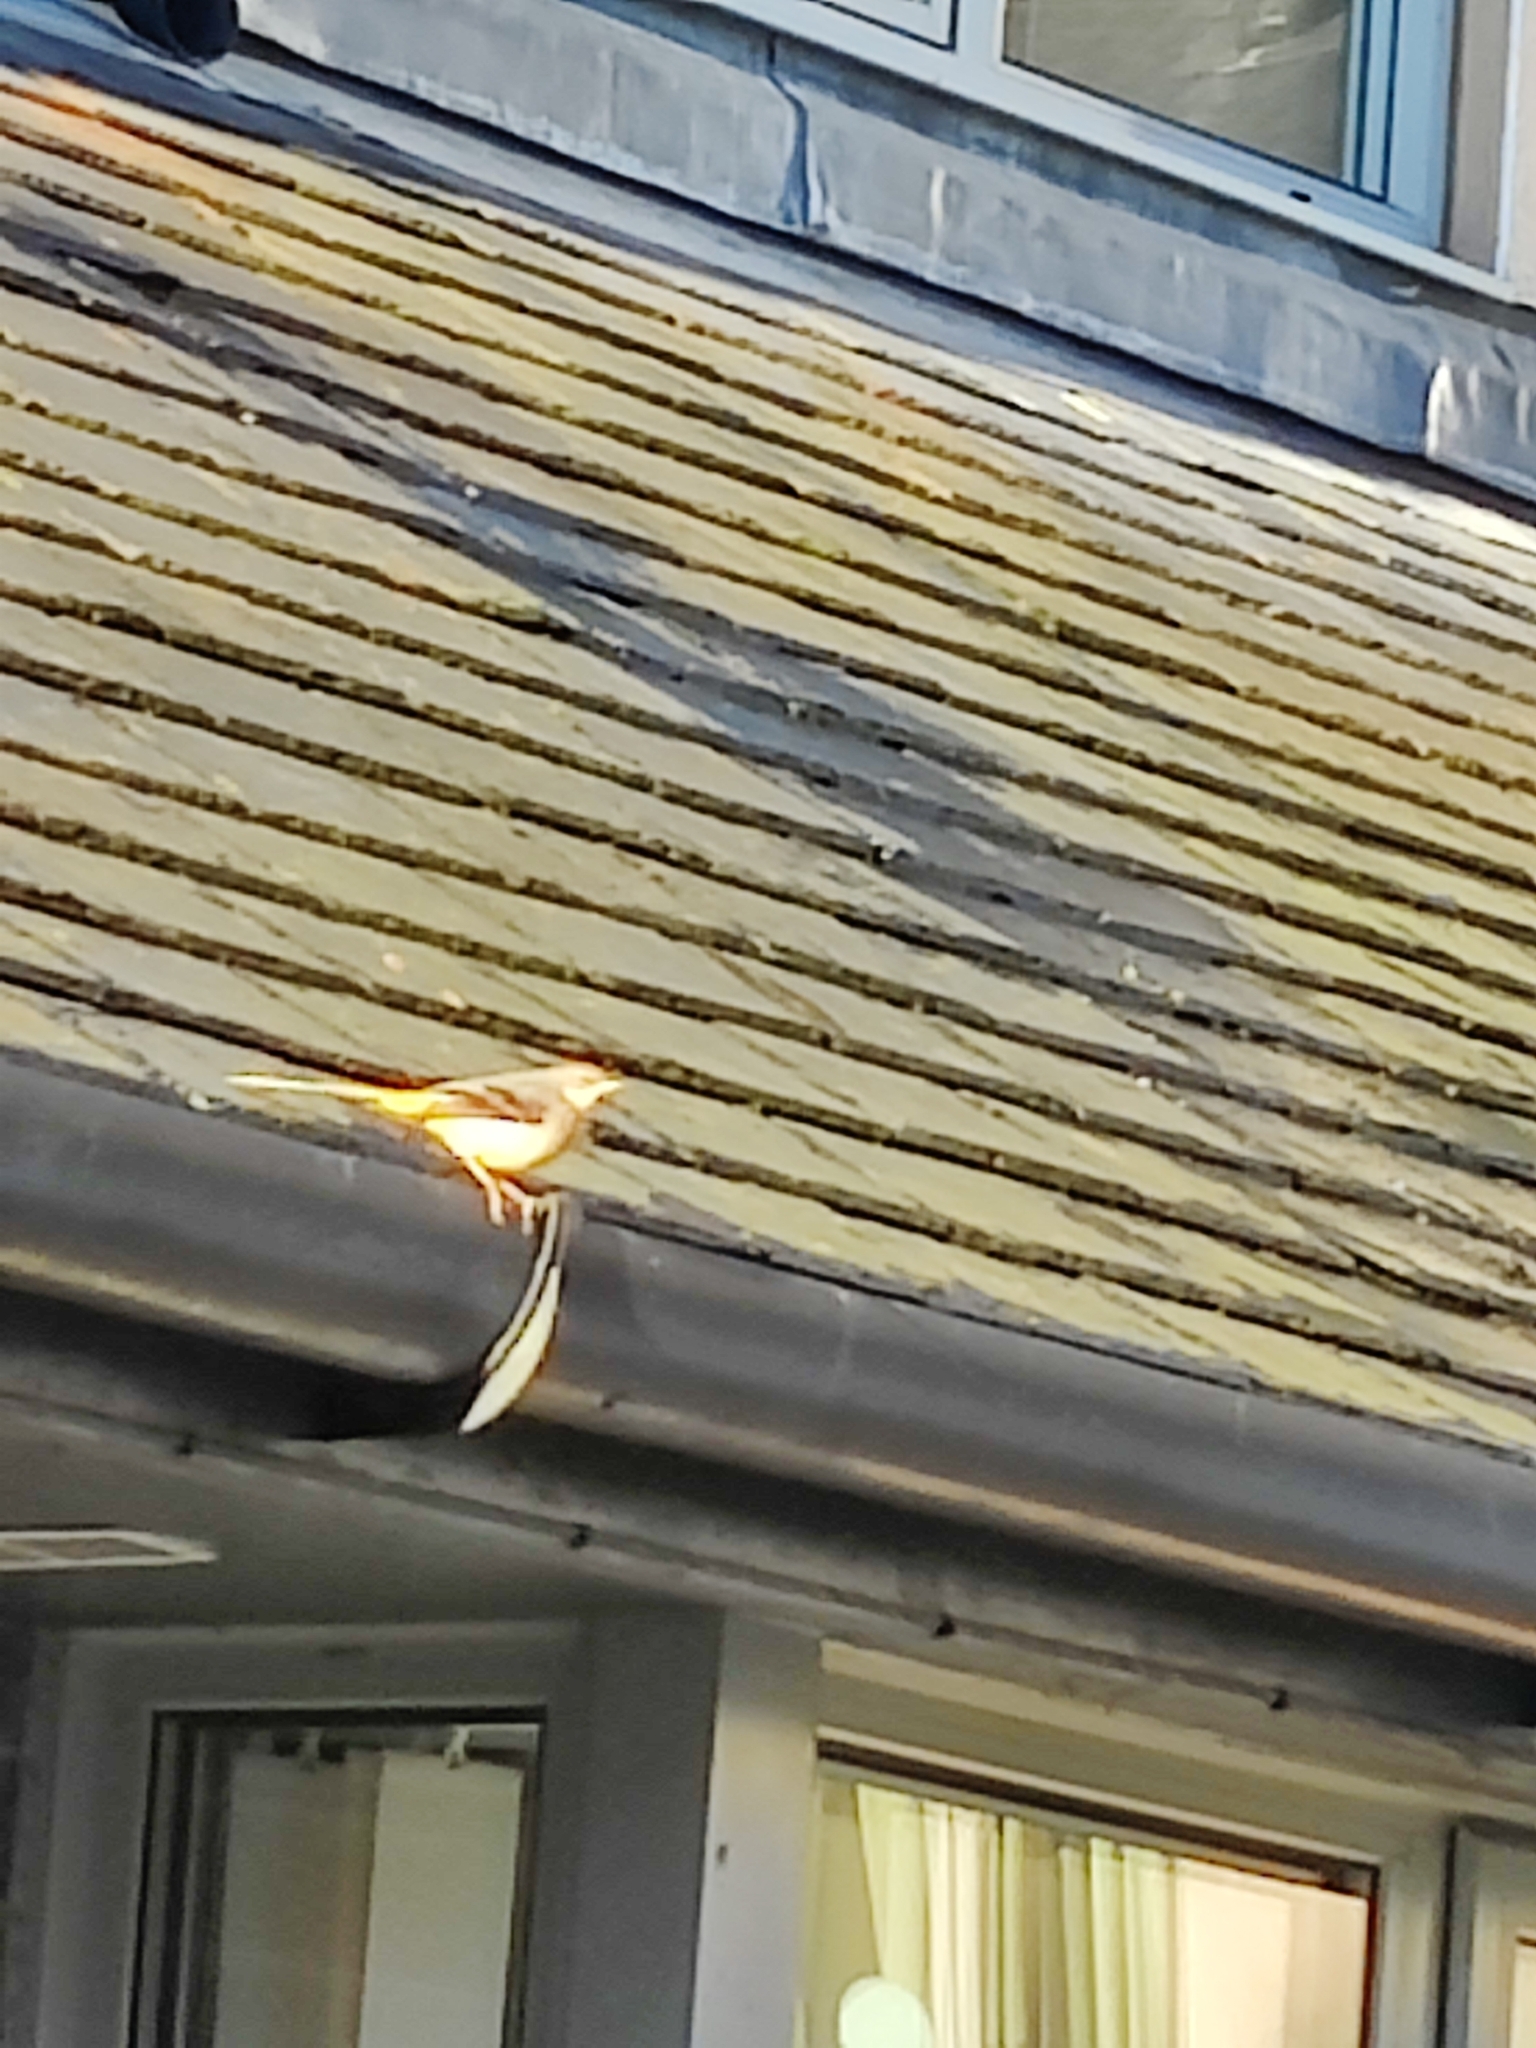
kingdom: Animalia
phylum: Chordata
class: Aves
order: Passeriformes
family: Motacillidae
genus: Motacilla
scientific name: Motacilla cinerea
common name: Grey wagtail
